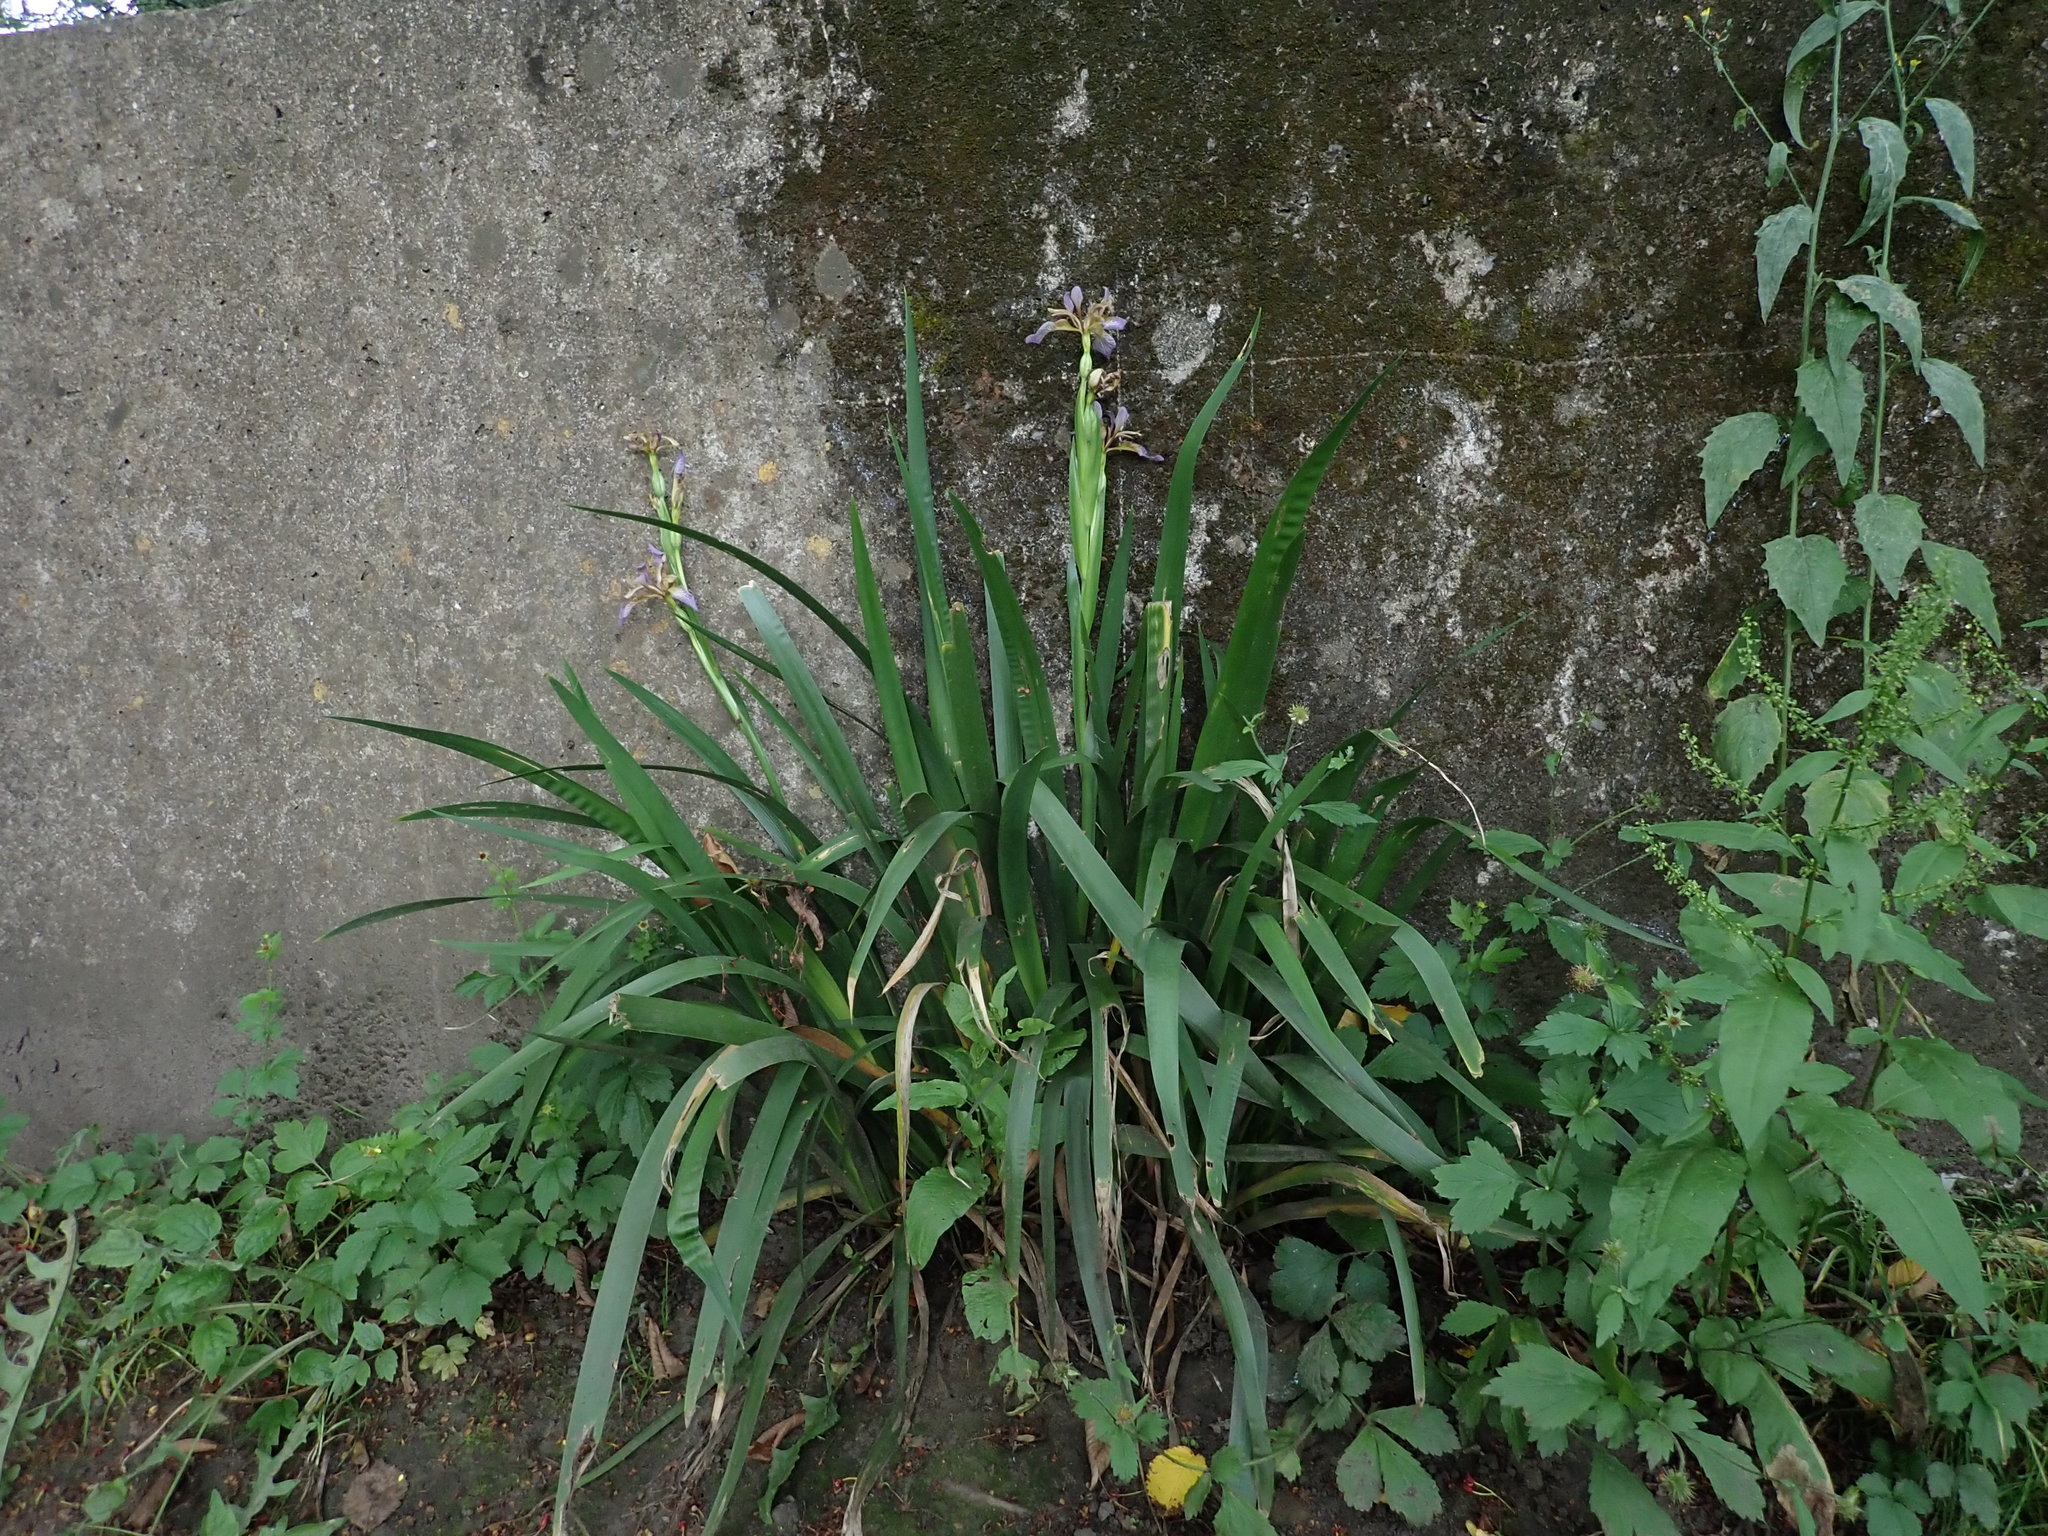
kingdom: Plantae
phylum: Tracheophyta
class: Liliopsida
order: Asparagales
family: Iridaceae
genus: Iris
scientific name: Iris foetidissima
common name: Stinking iris
